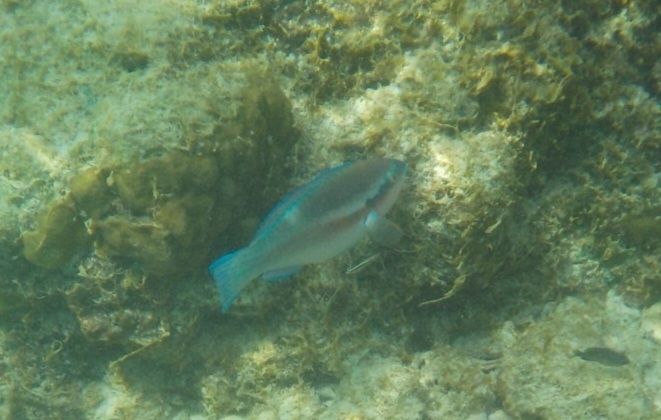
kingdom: Animalia
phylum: Chordata
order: Perciformes
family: Scaridae
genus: Scarus
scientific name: Scarus iseri
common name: Striped parrotfish
